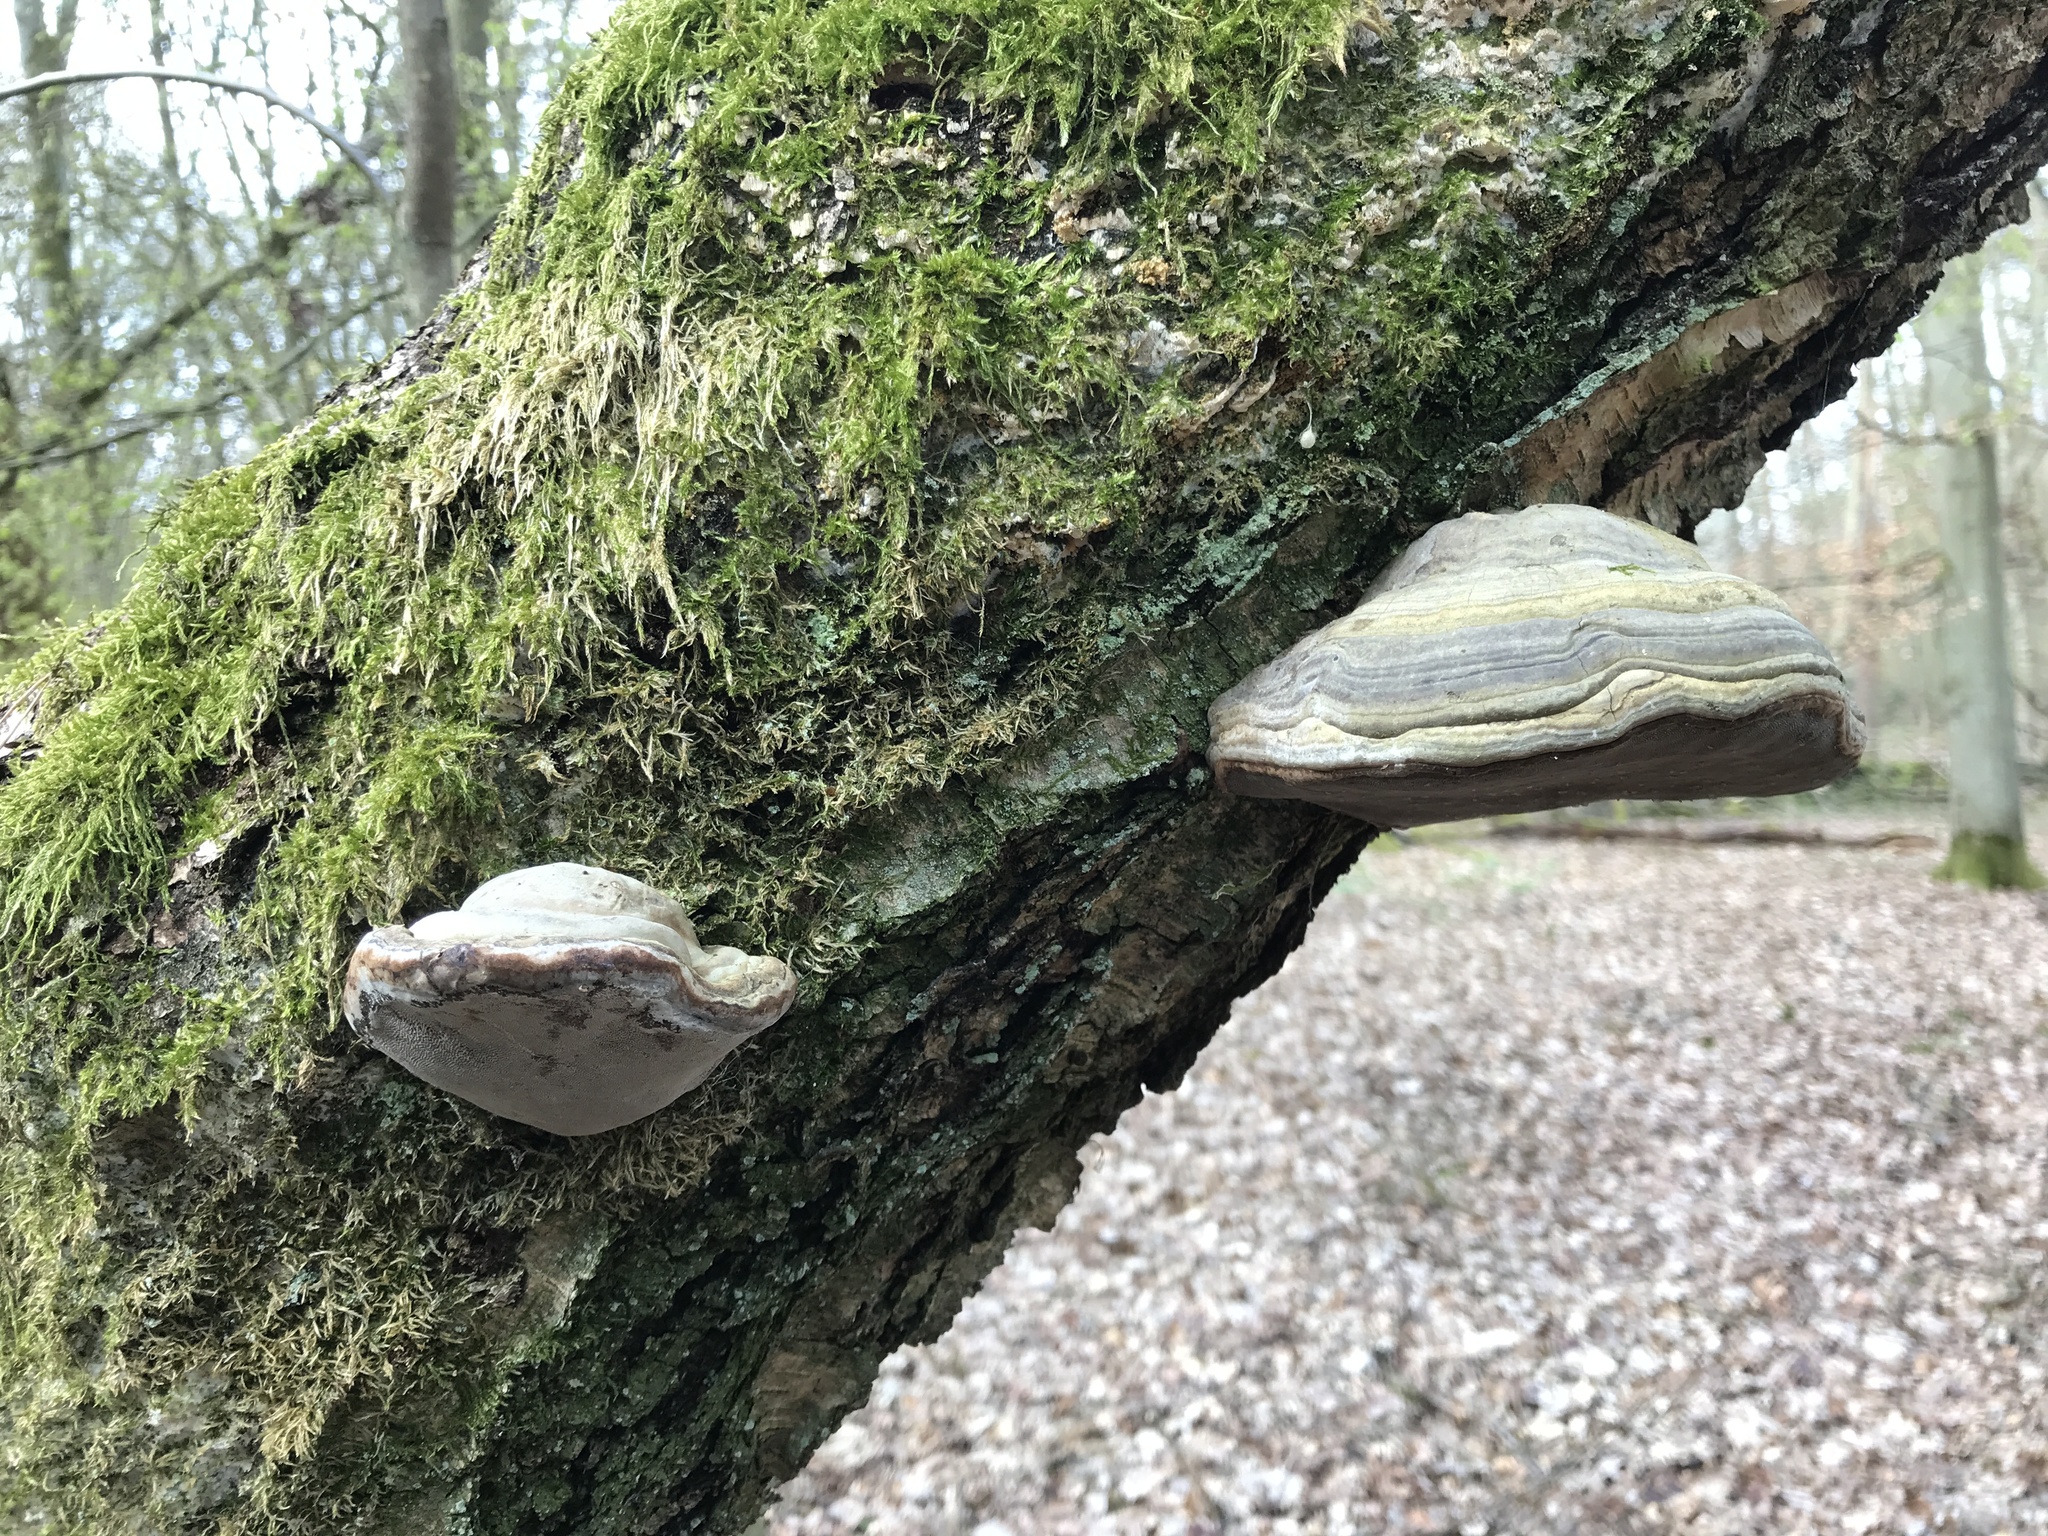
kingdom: Fungi
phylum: Basidiomycota
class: Agaricomycetes
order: Polyporales
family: Polyporaceae
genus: Fomes
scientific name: Fomes fomentarius
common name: Hoof fungus
